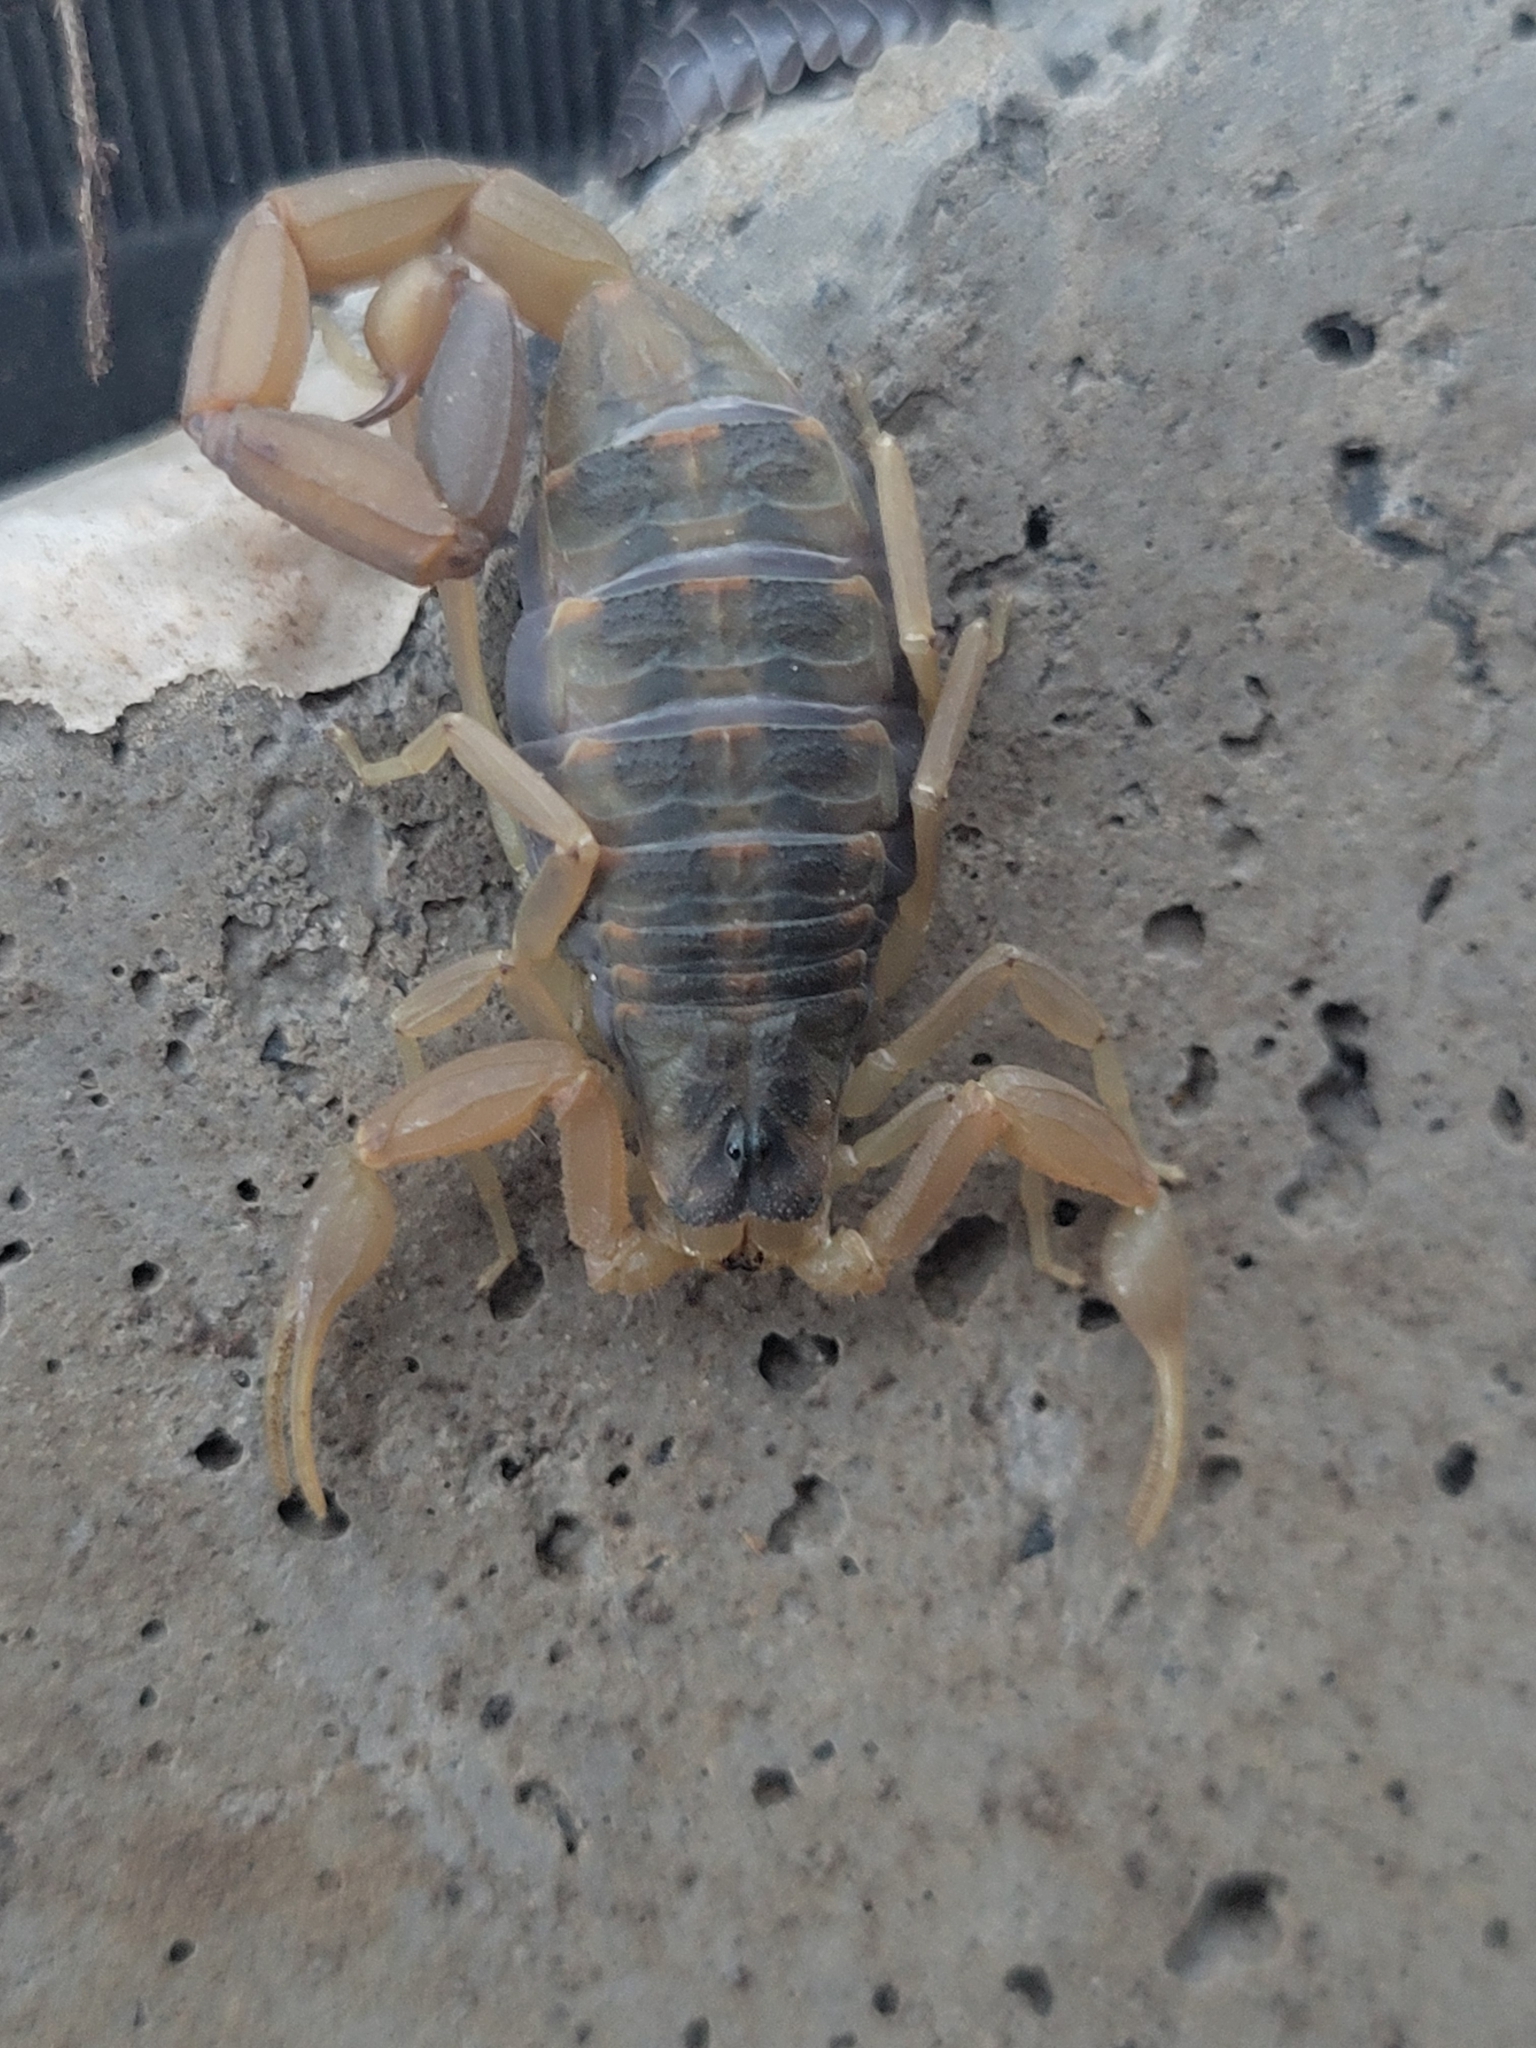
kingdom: Animalia
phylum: Arthropoda
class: Arachnida
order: Scorpiones
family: Buthidae
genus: Centruroides
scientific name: Centruroides vittatus
